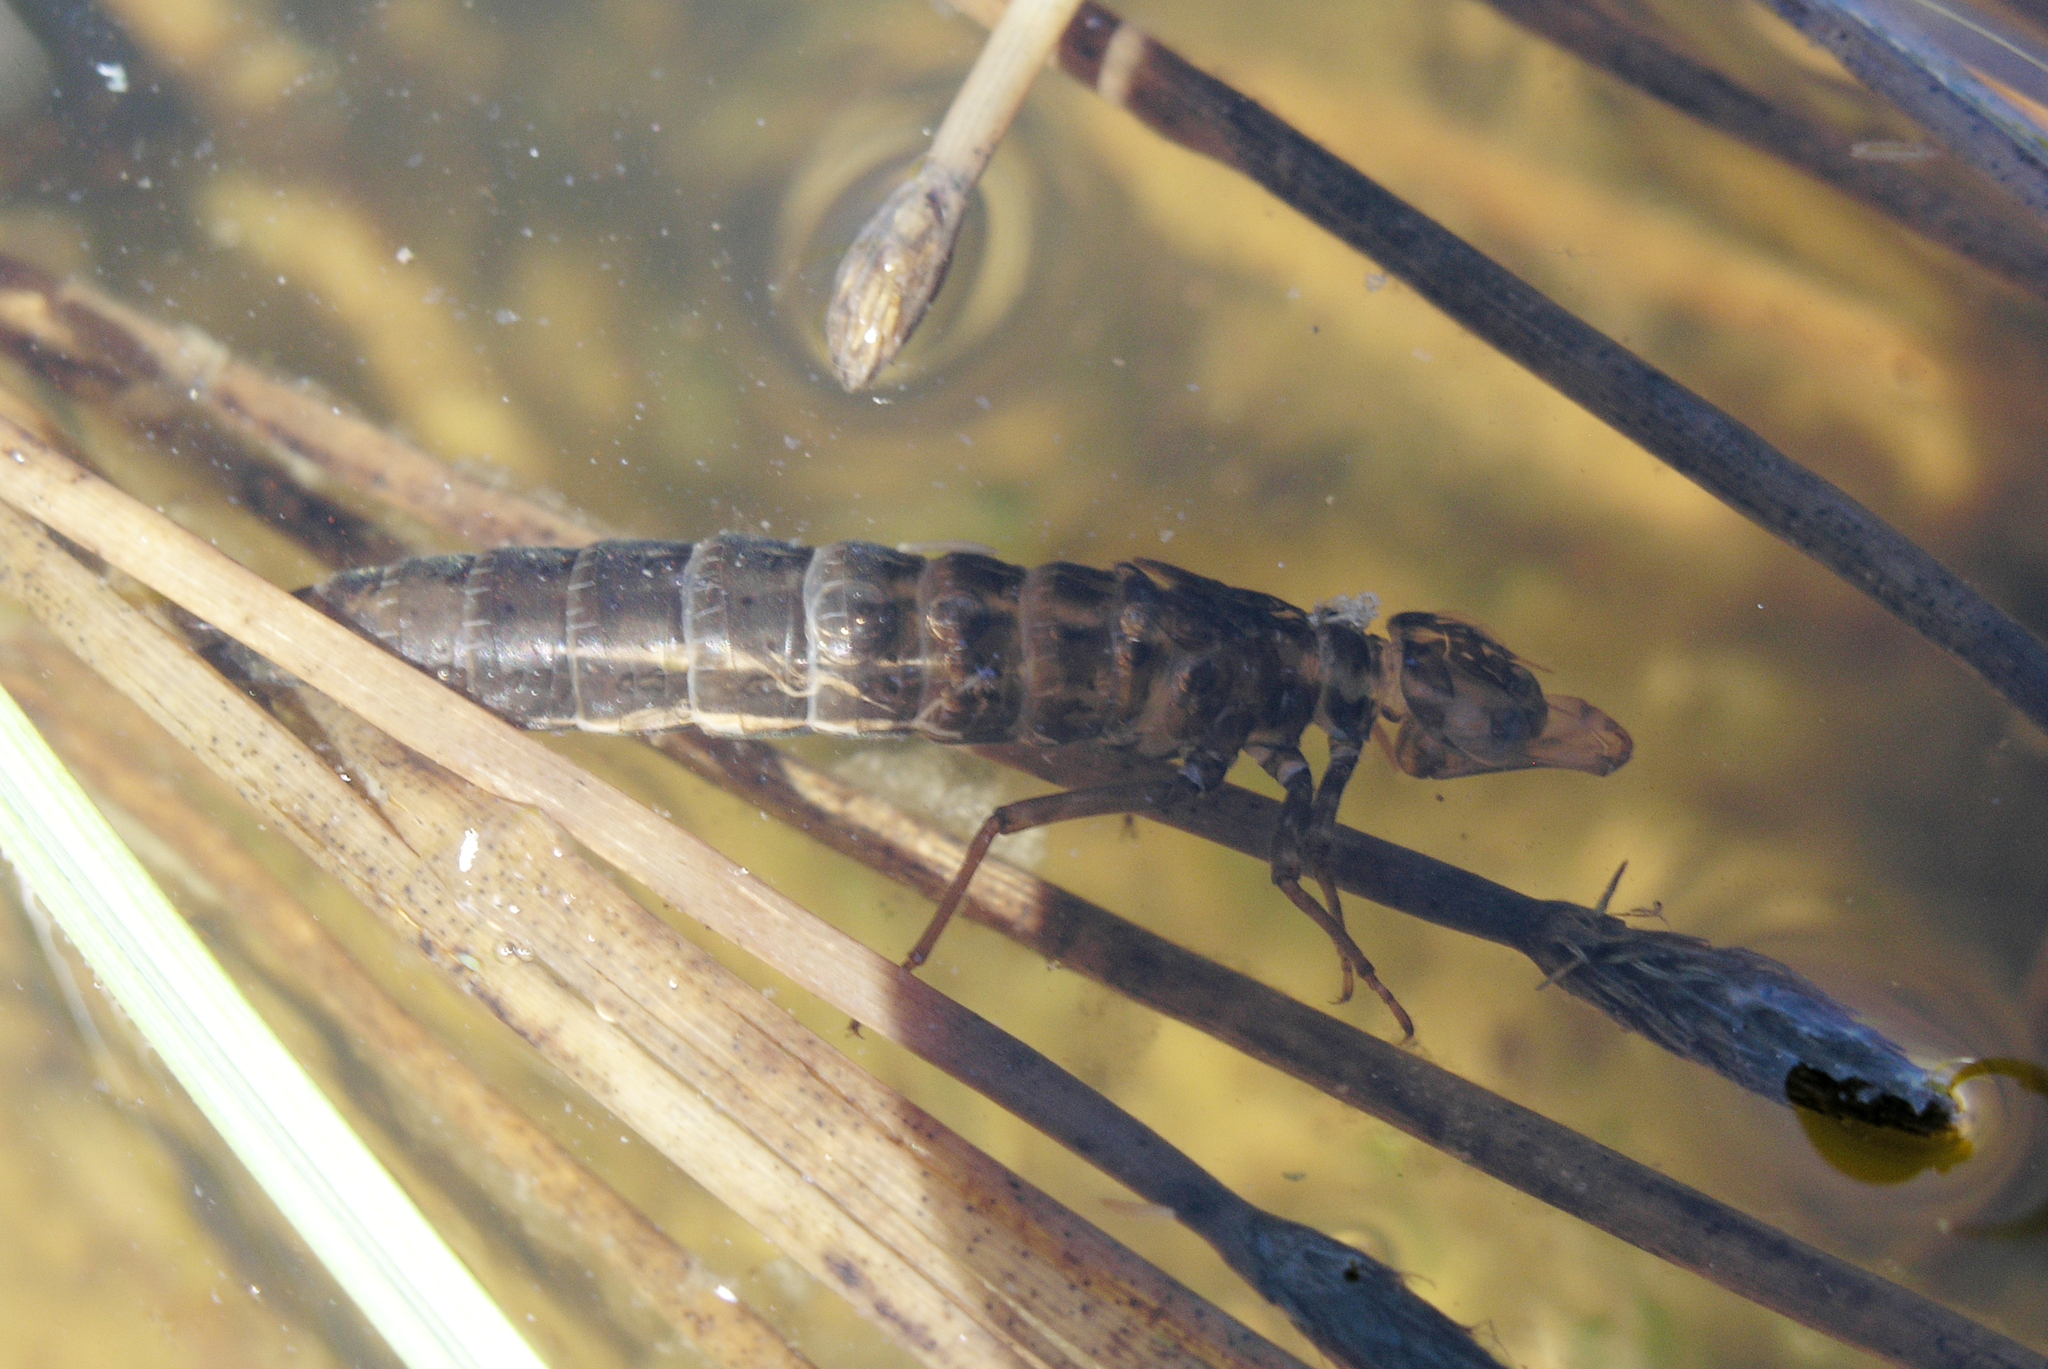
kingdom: Animalia
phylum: Arthropoda
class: Insecta
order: Odonata
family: Aeshnidae
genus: Aeshna
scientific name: Aeshna juncea
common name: Moorland hawker
